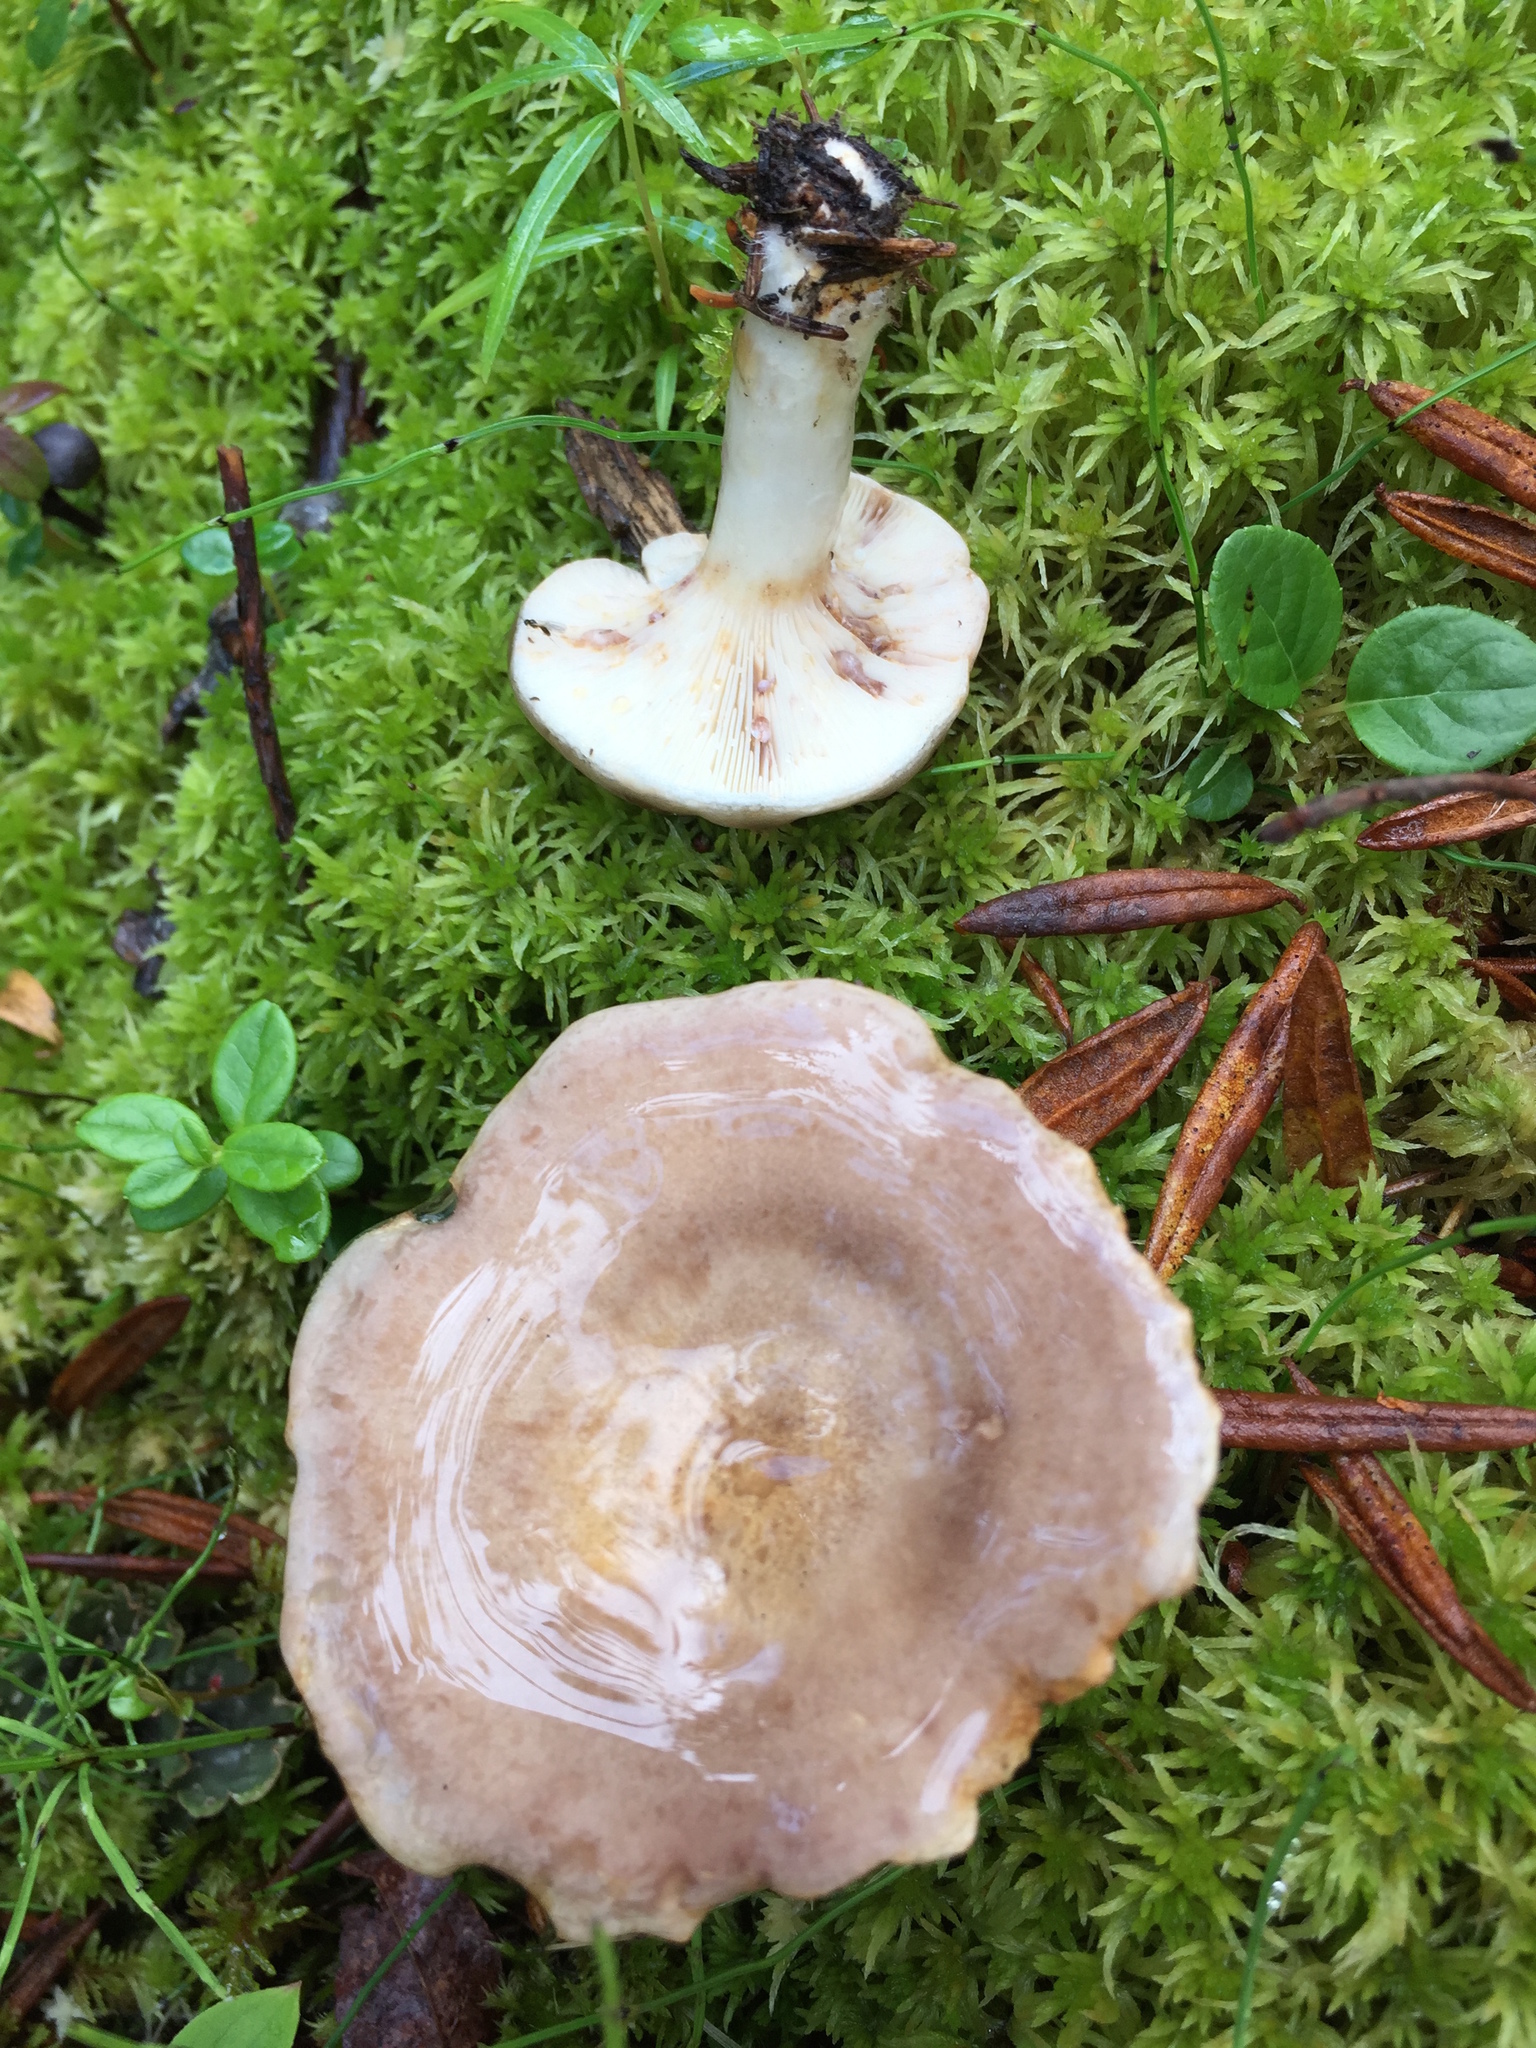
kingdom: Fungi
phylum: Basidiomycota
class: Agaricomycetes
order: Russulales
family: Russulaceae
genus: Lactarius
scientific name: Lactarius uvidus
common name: Shiner milkcap
